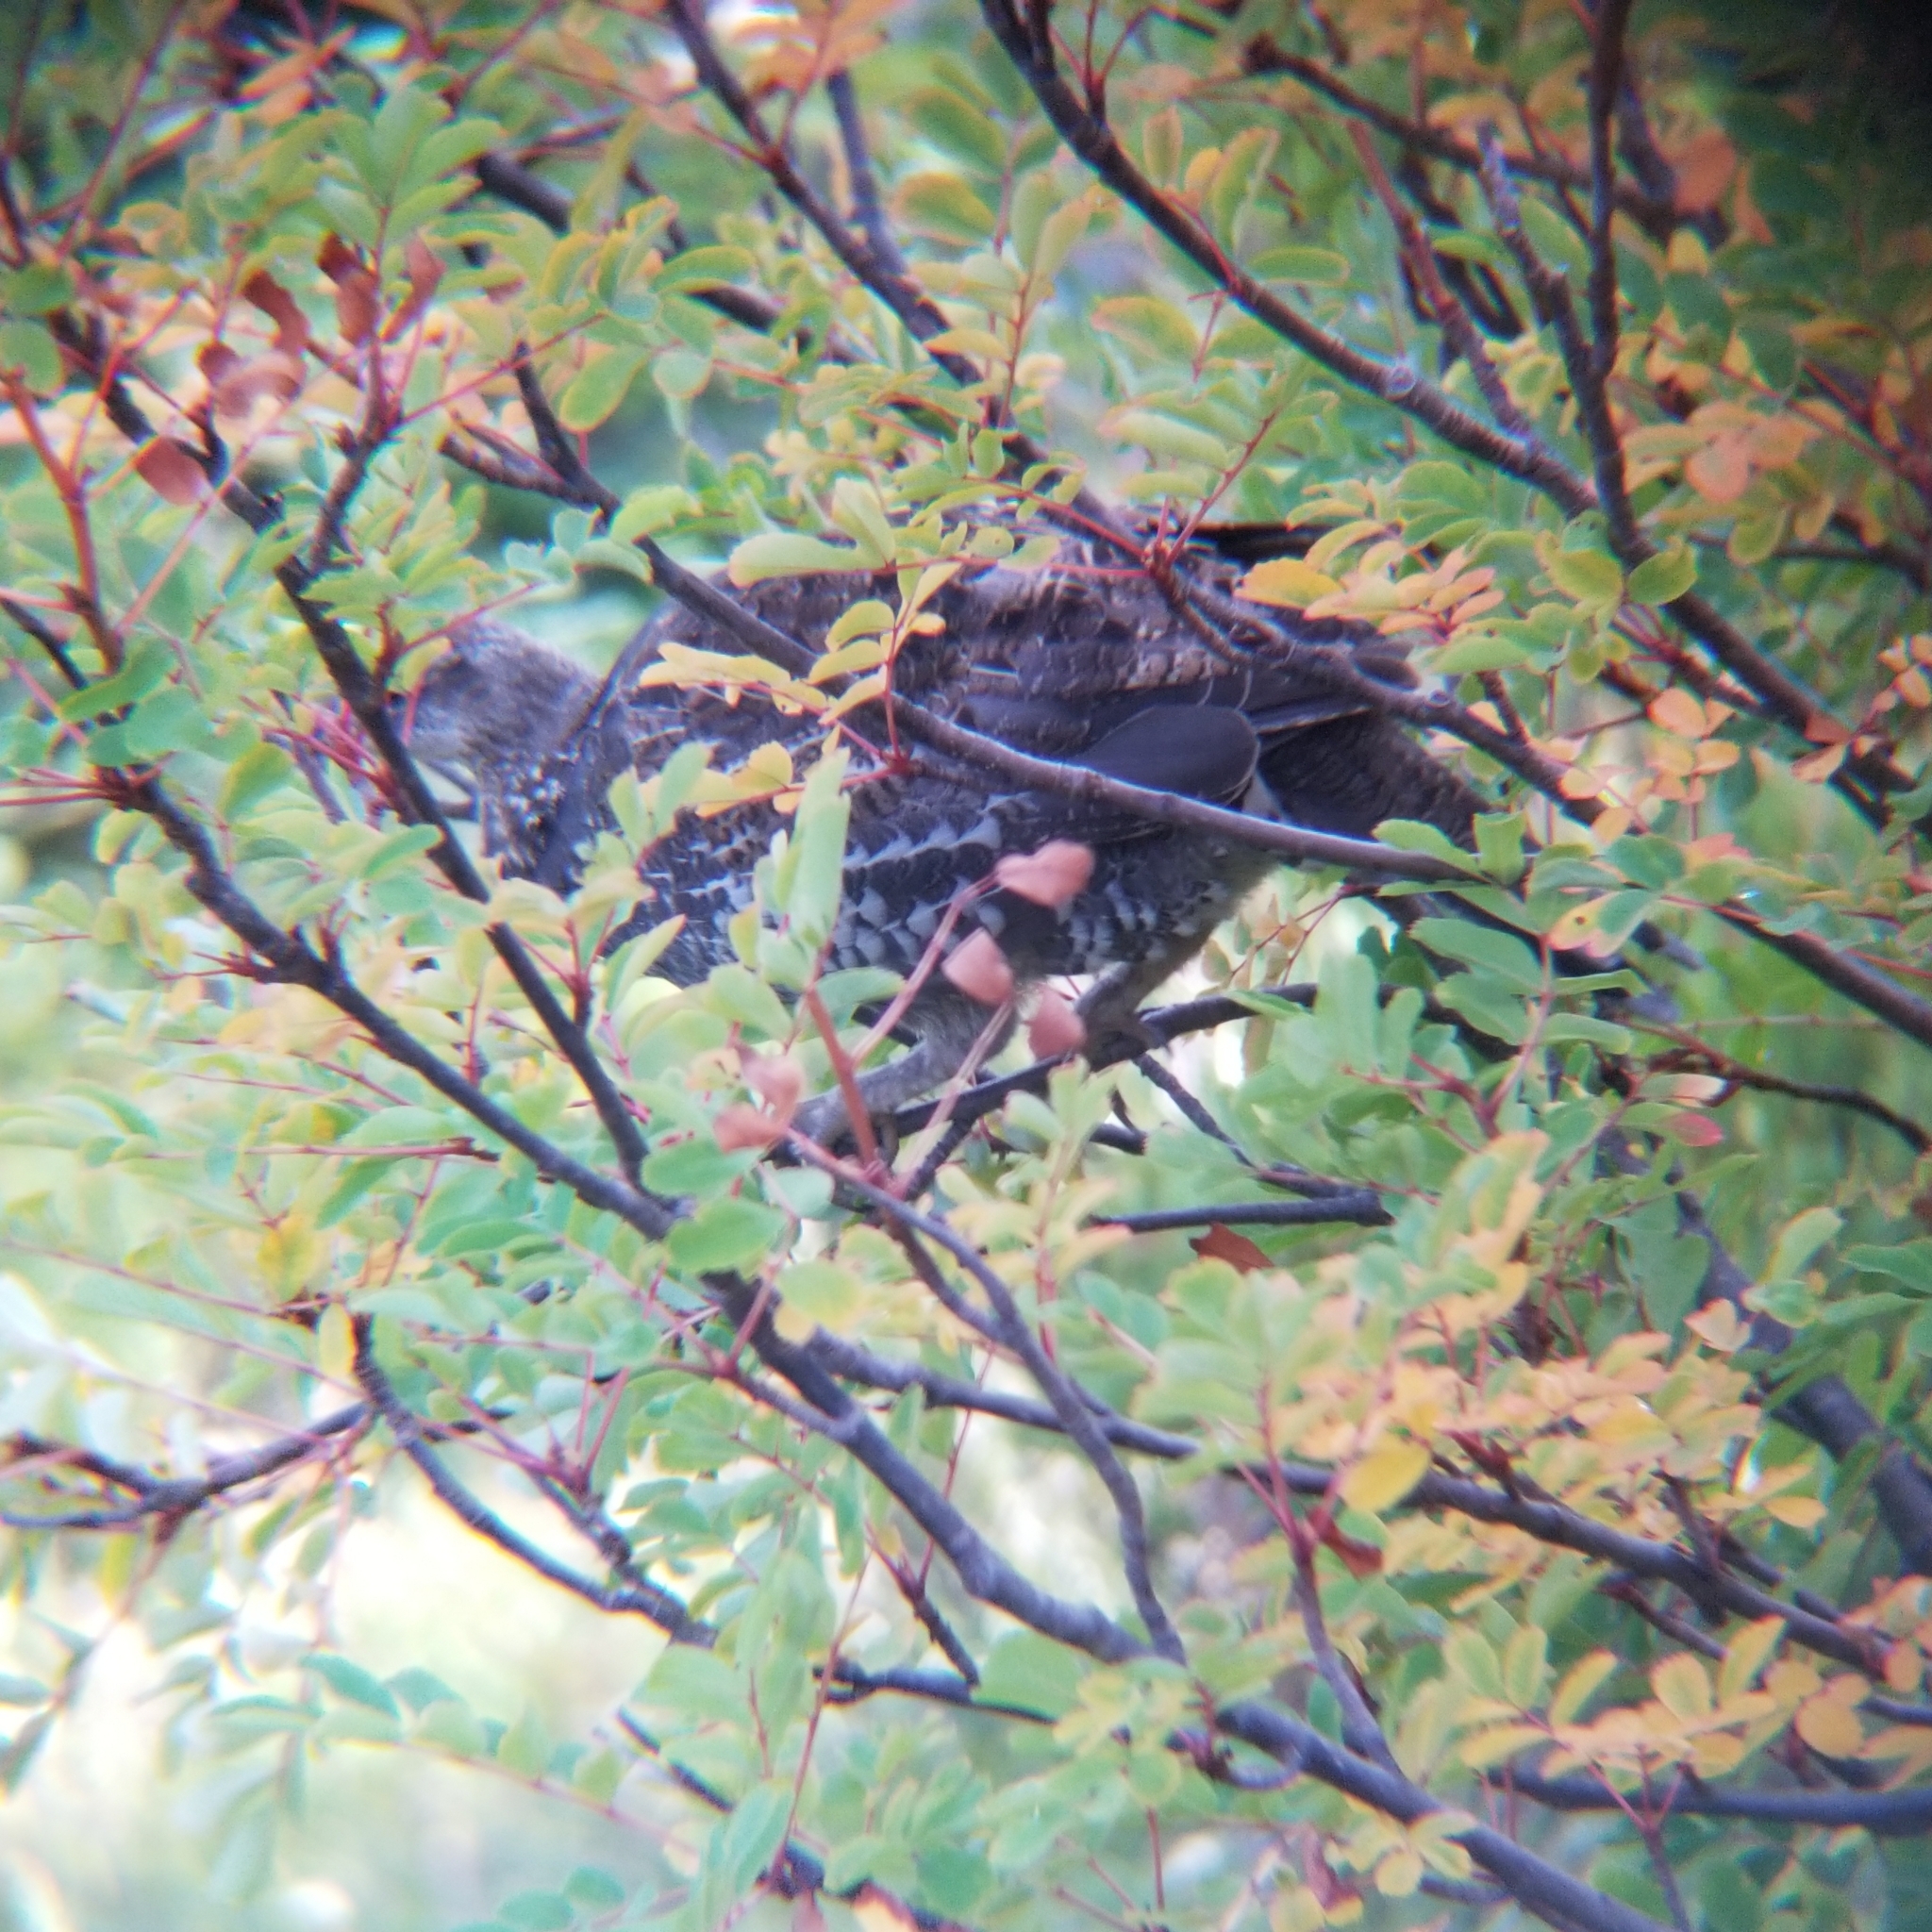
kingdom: Animalia
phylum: Chordata
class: Aves
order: Galliformes
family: Phasianidae
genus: Dendragapus
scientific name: Dendragapus fuliginosus
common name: Sooty grouse
